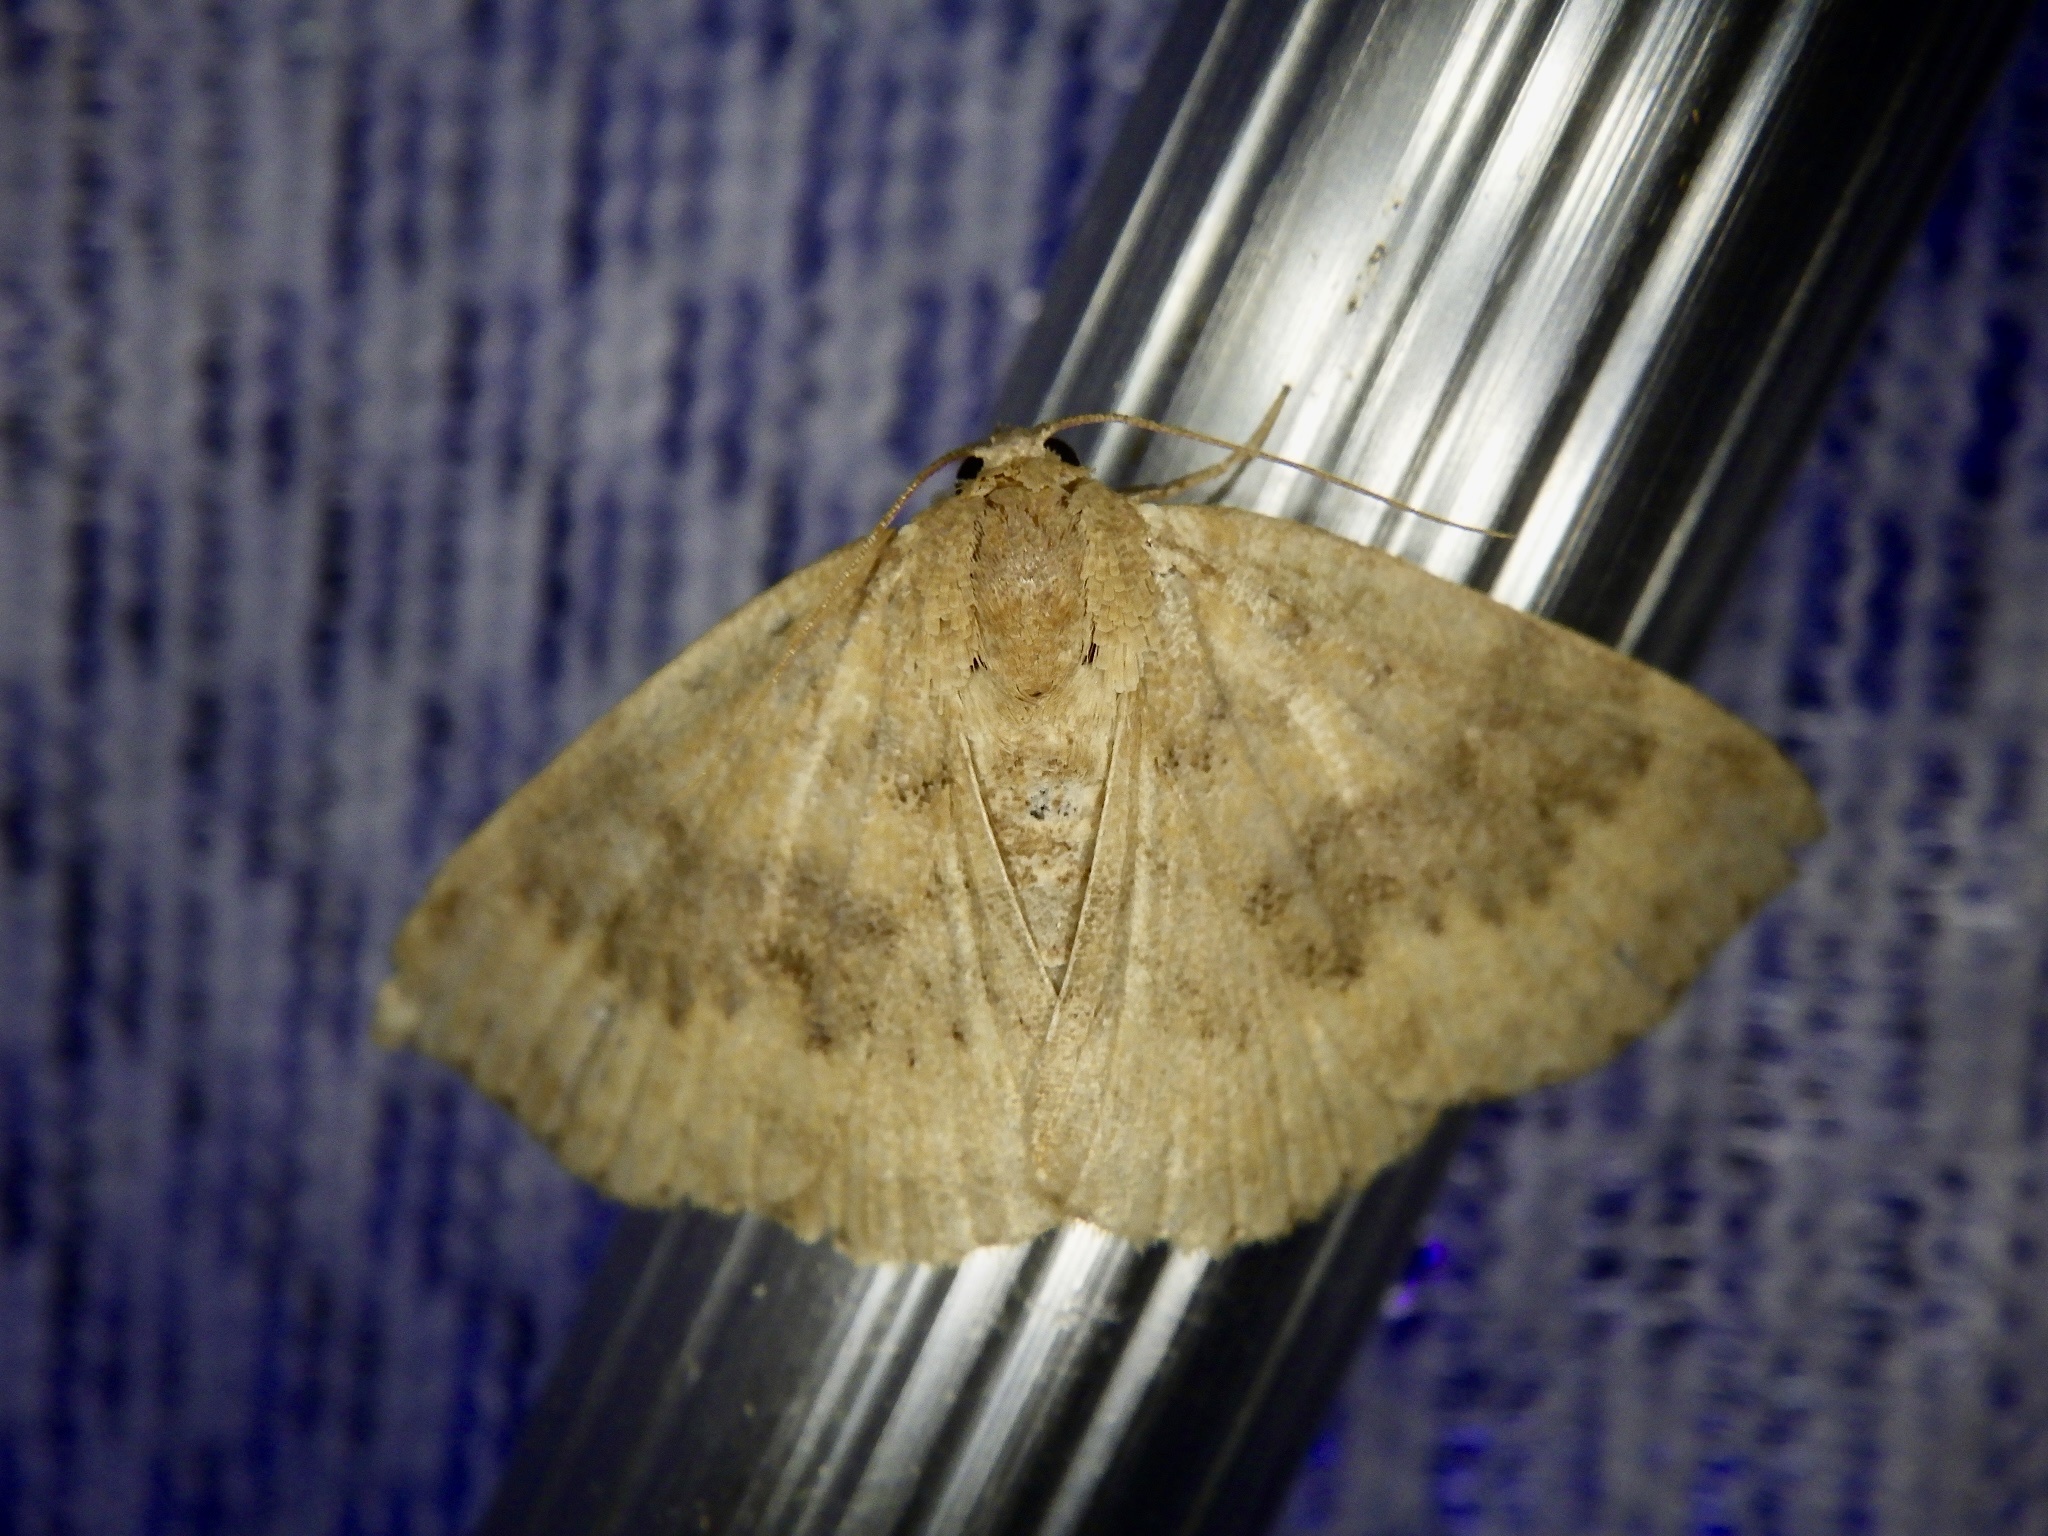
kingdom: Animalia
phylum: Arthropoda
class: Insecta
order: Lepidoptera
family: Noctuidae
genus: Oruza
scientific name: Oruza brunnea
